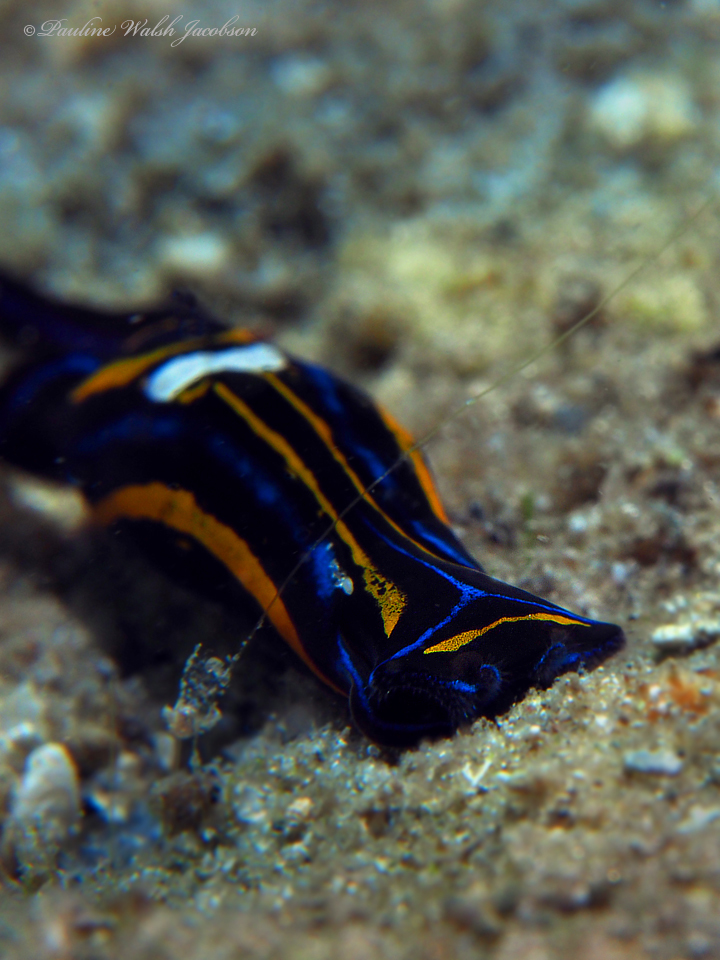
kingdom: Animalia
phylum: Mollusca
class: Gastropoda
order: Cephalaspidea
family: Aglajidae
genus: Chelidonura
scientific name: Chelidonura hirundinina
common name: Leech headshield slug
